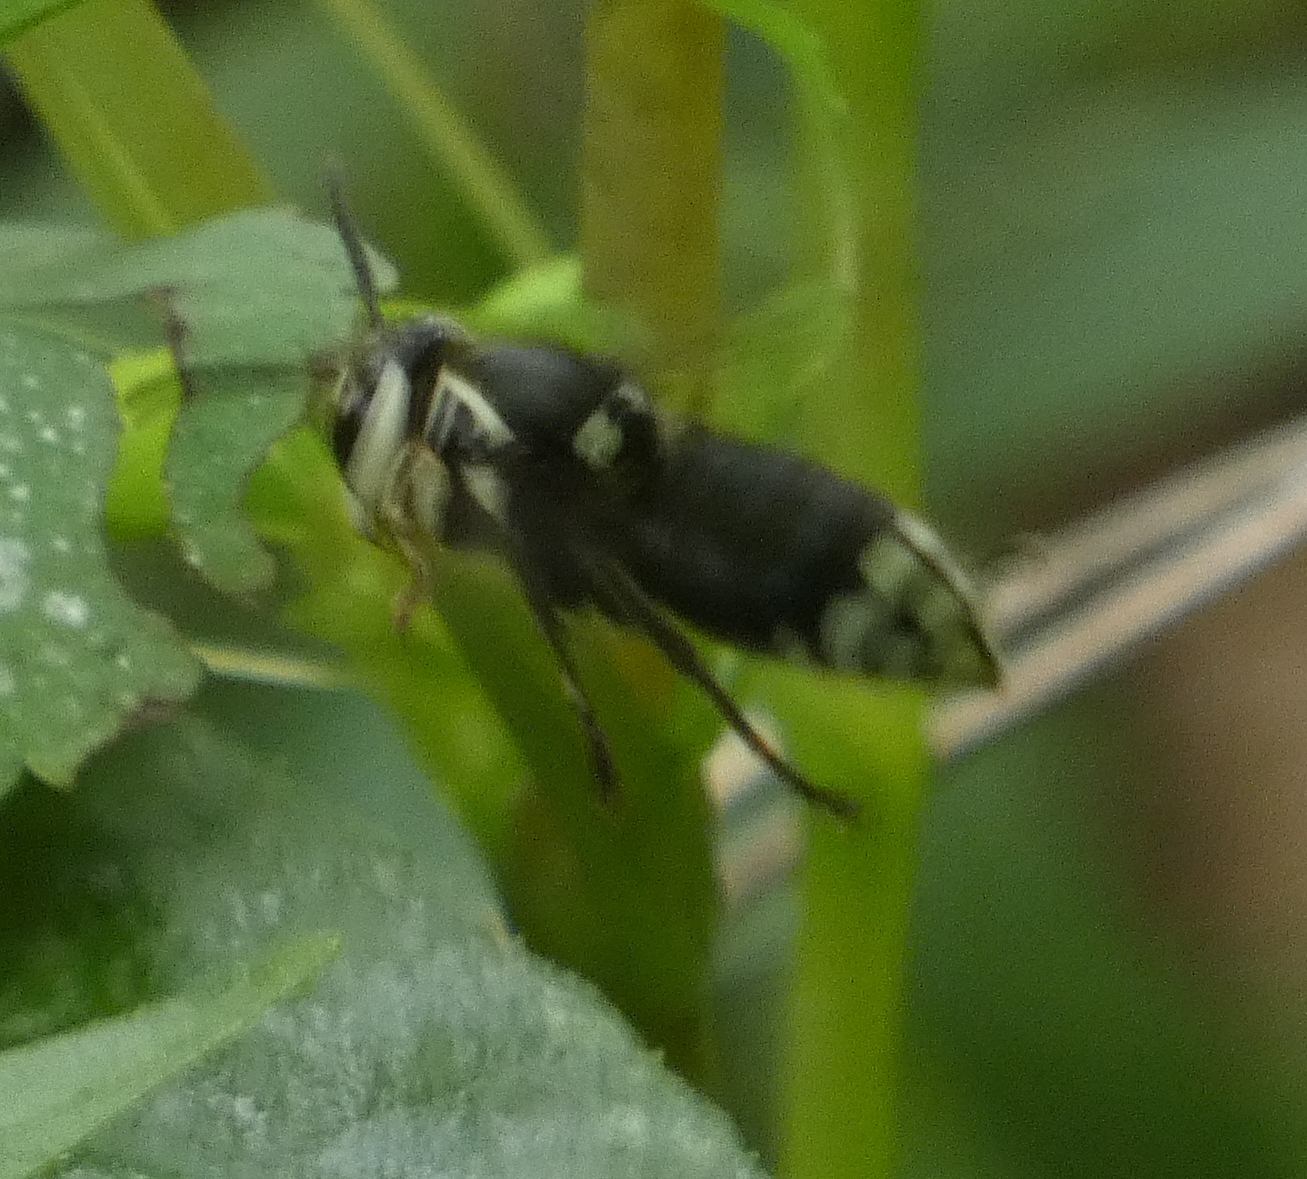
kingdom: Animalia
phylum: Arthropoda
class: Insecta
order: Hymenoptera
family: Vespidae
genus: Dolichovespula
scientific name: Dolichovespula maculata
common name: Bald-faced hornet
